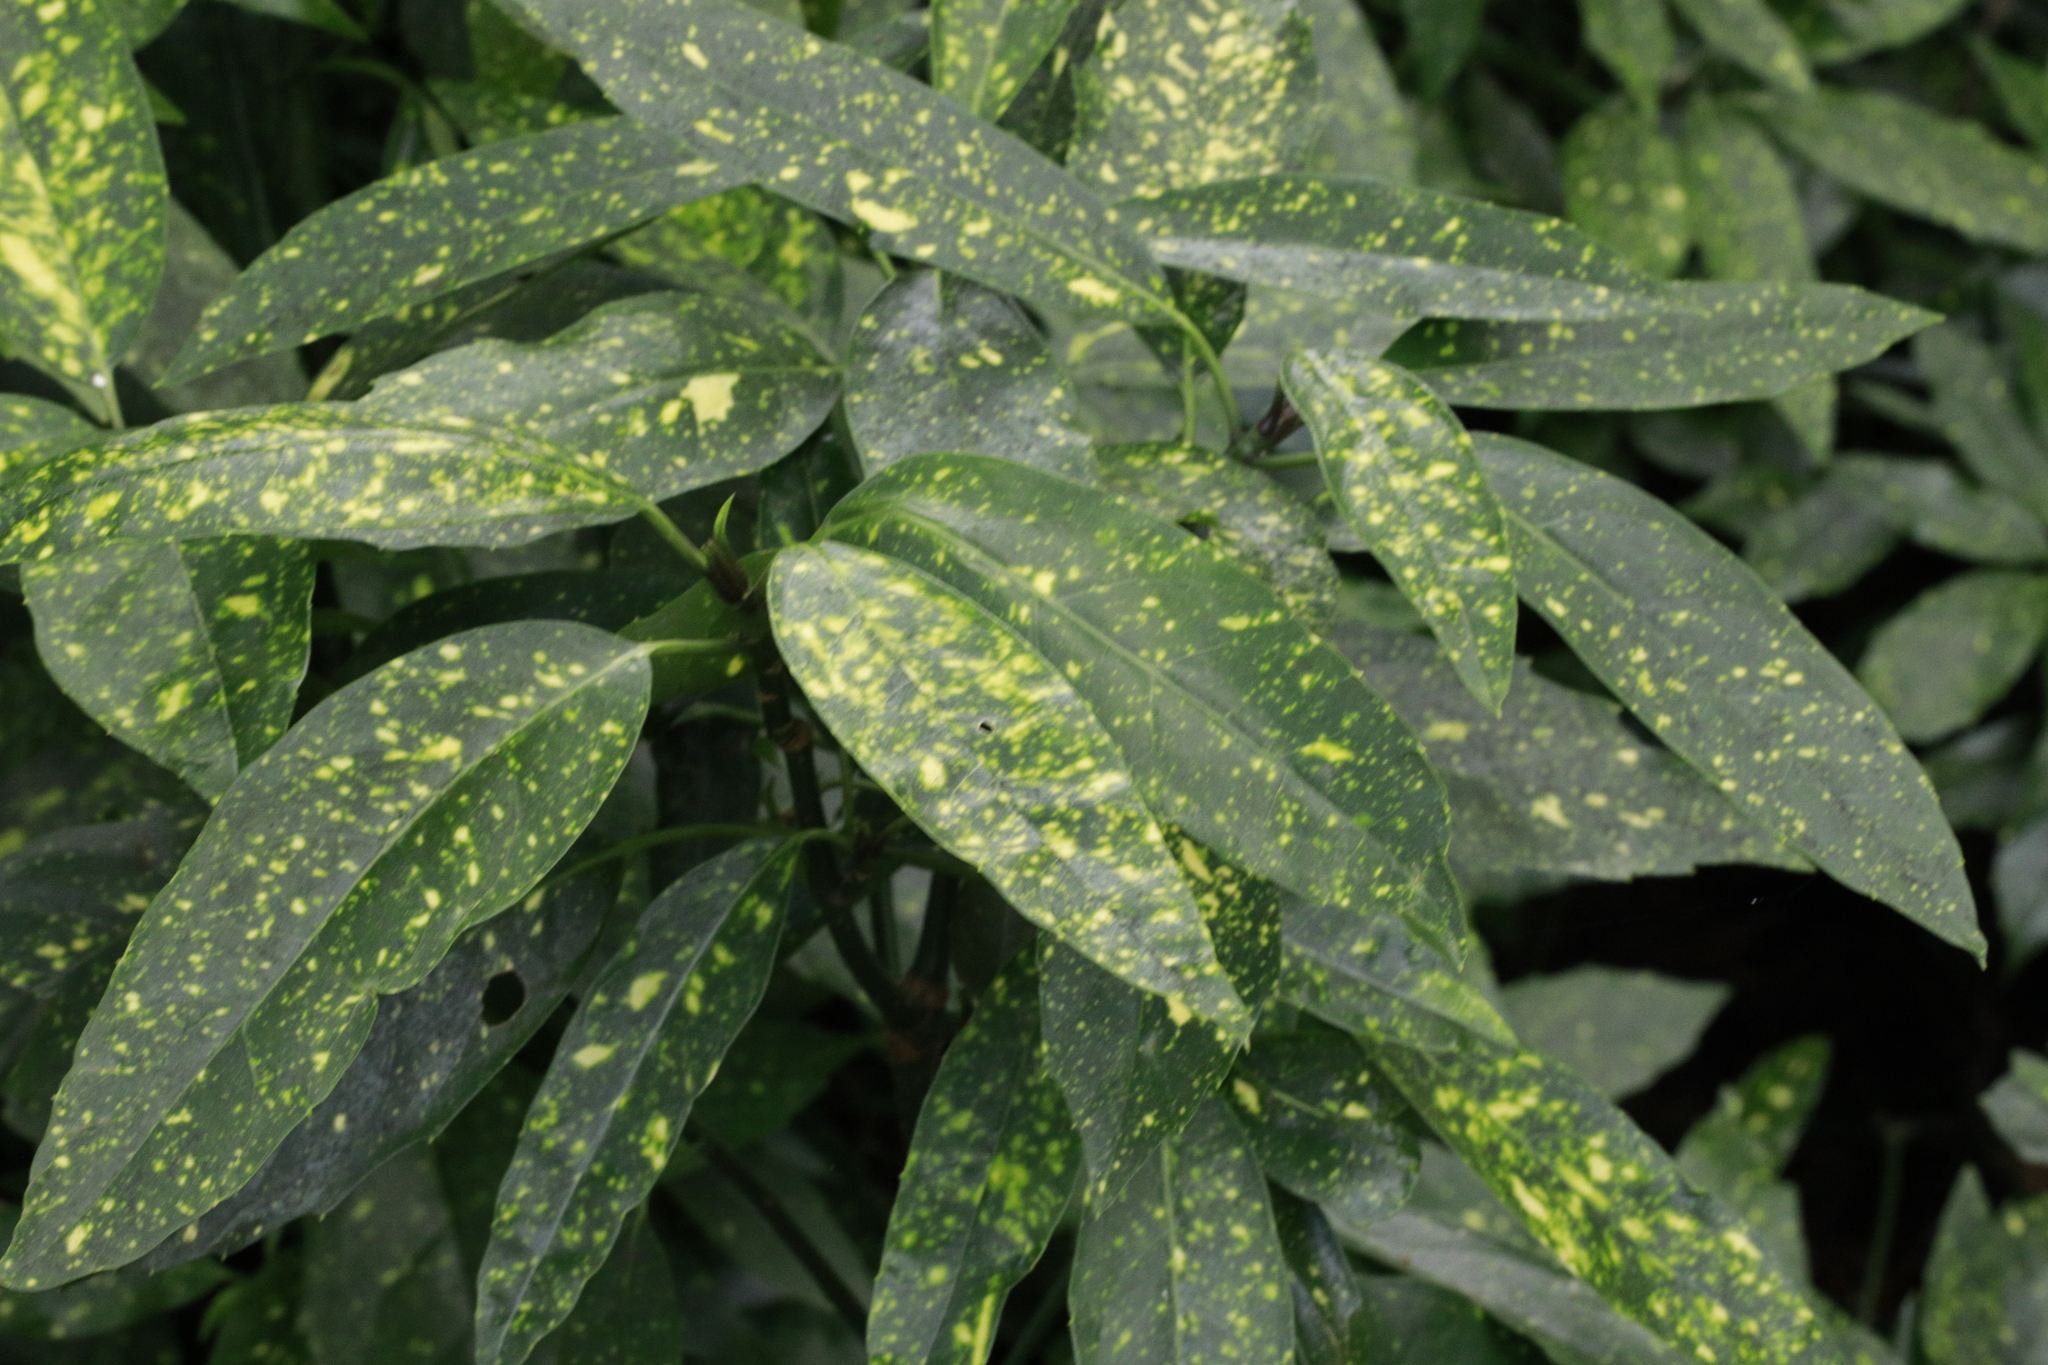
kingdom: Plantae
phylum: Tracheophyta
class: Magnoliopsida
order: Garryales
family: Garryaceae
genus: Aucuba
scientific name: Aucuba japonica
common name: Spotted-laurel
